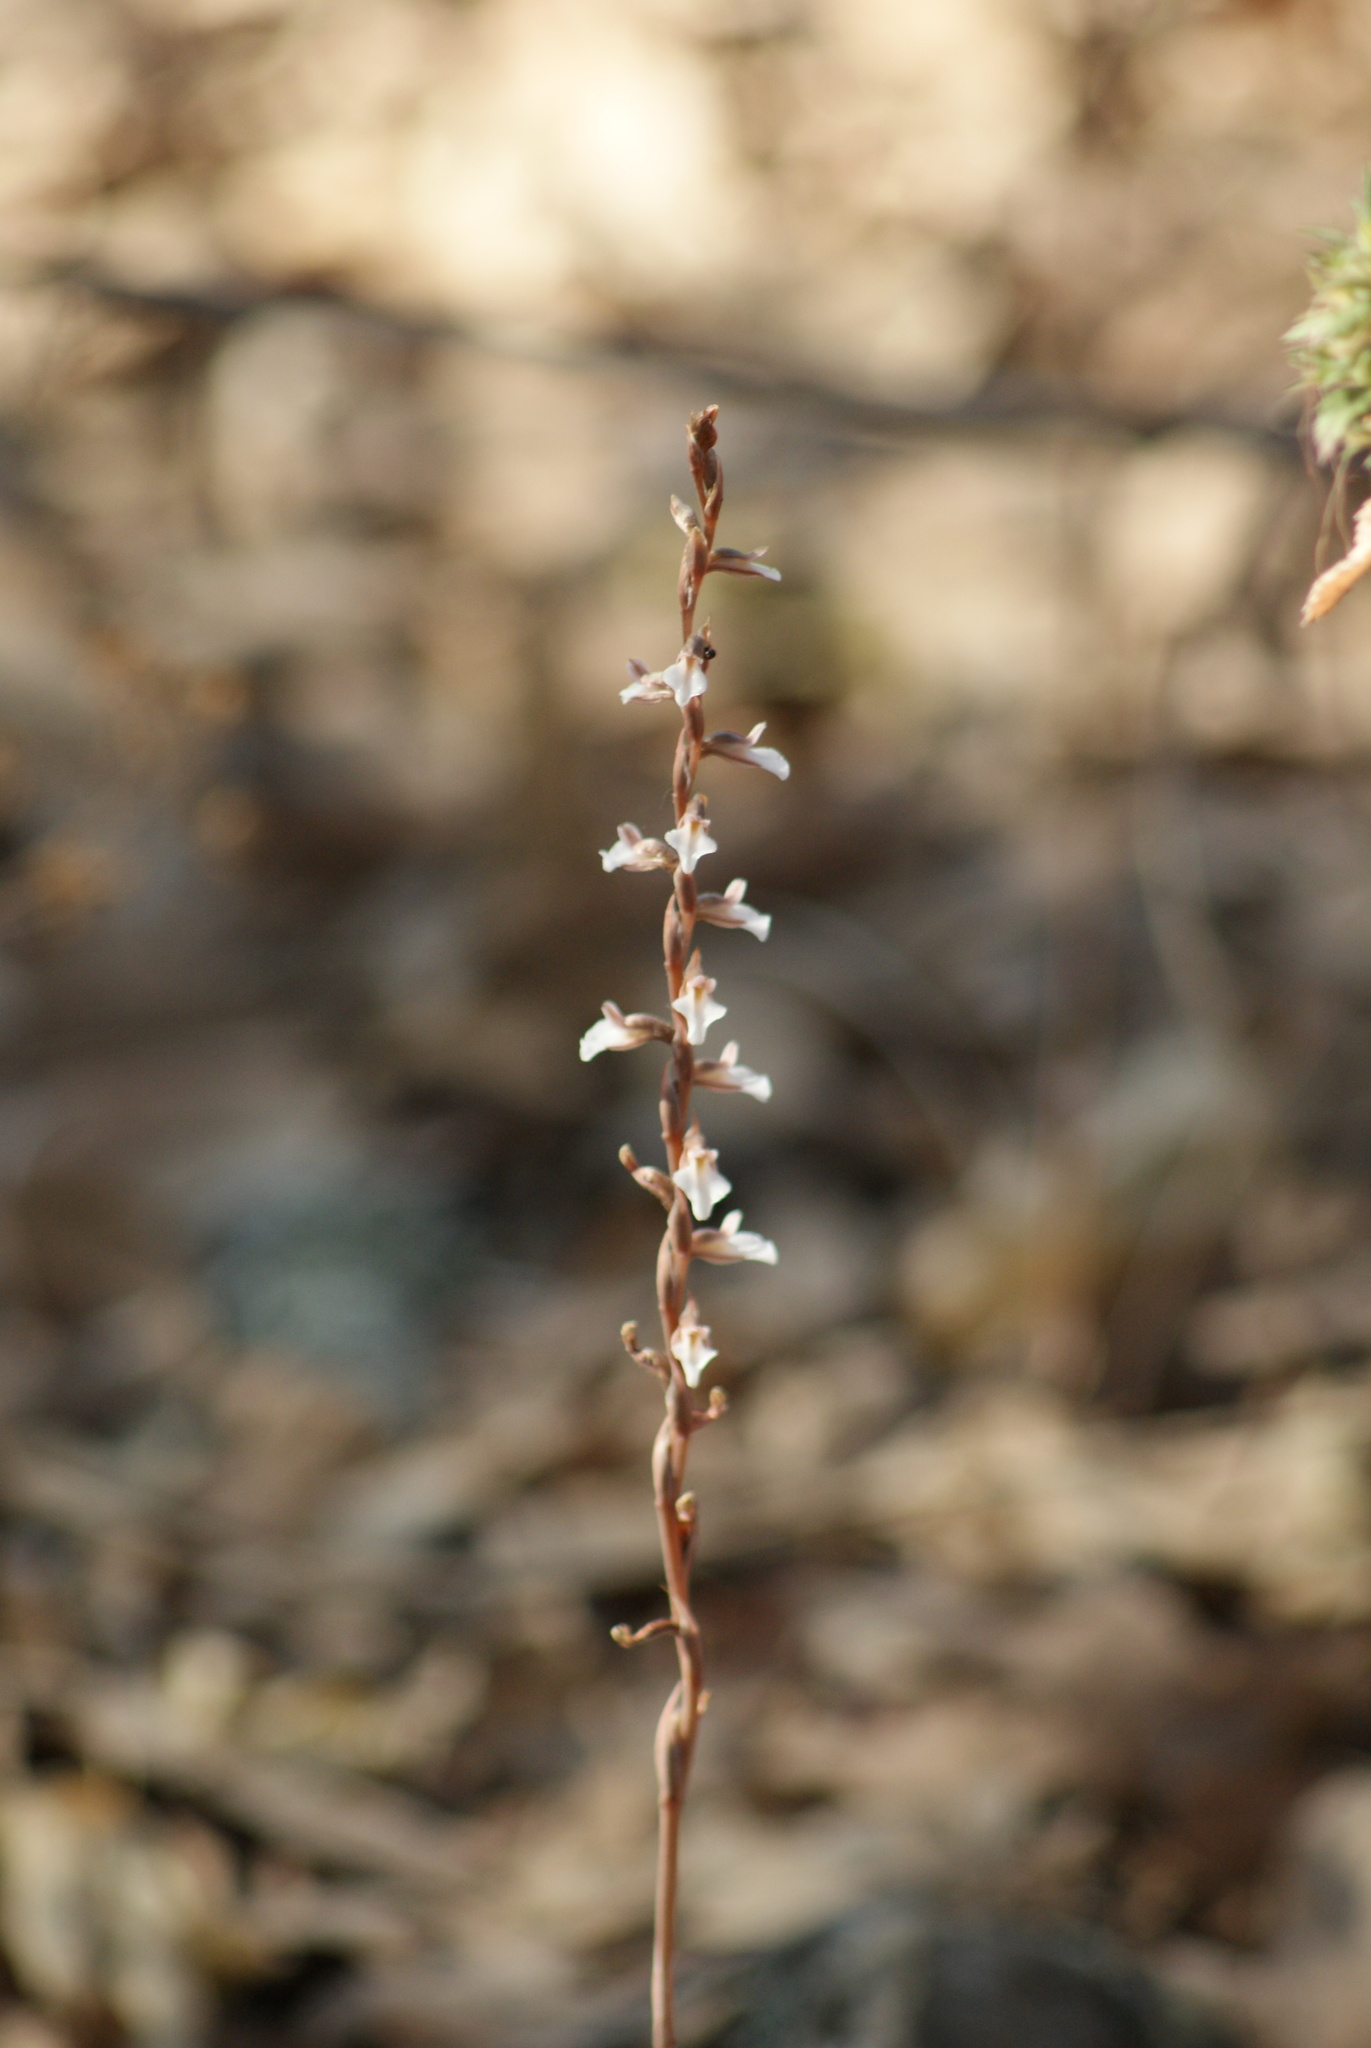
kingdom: Plantae
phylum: Tracheophyta
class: Liliopsida
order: Asparagales
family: Orchidaceae
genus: Greenwoodiella
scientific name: Greenwoodiella micrantha
